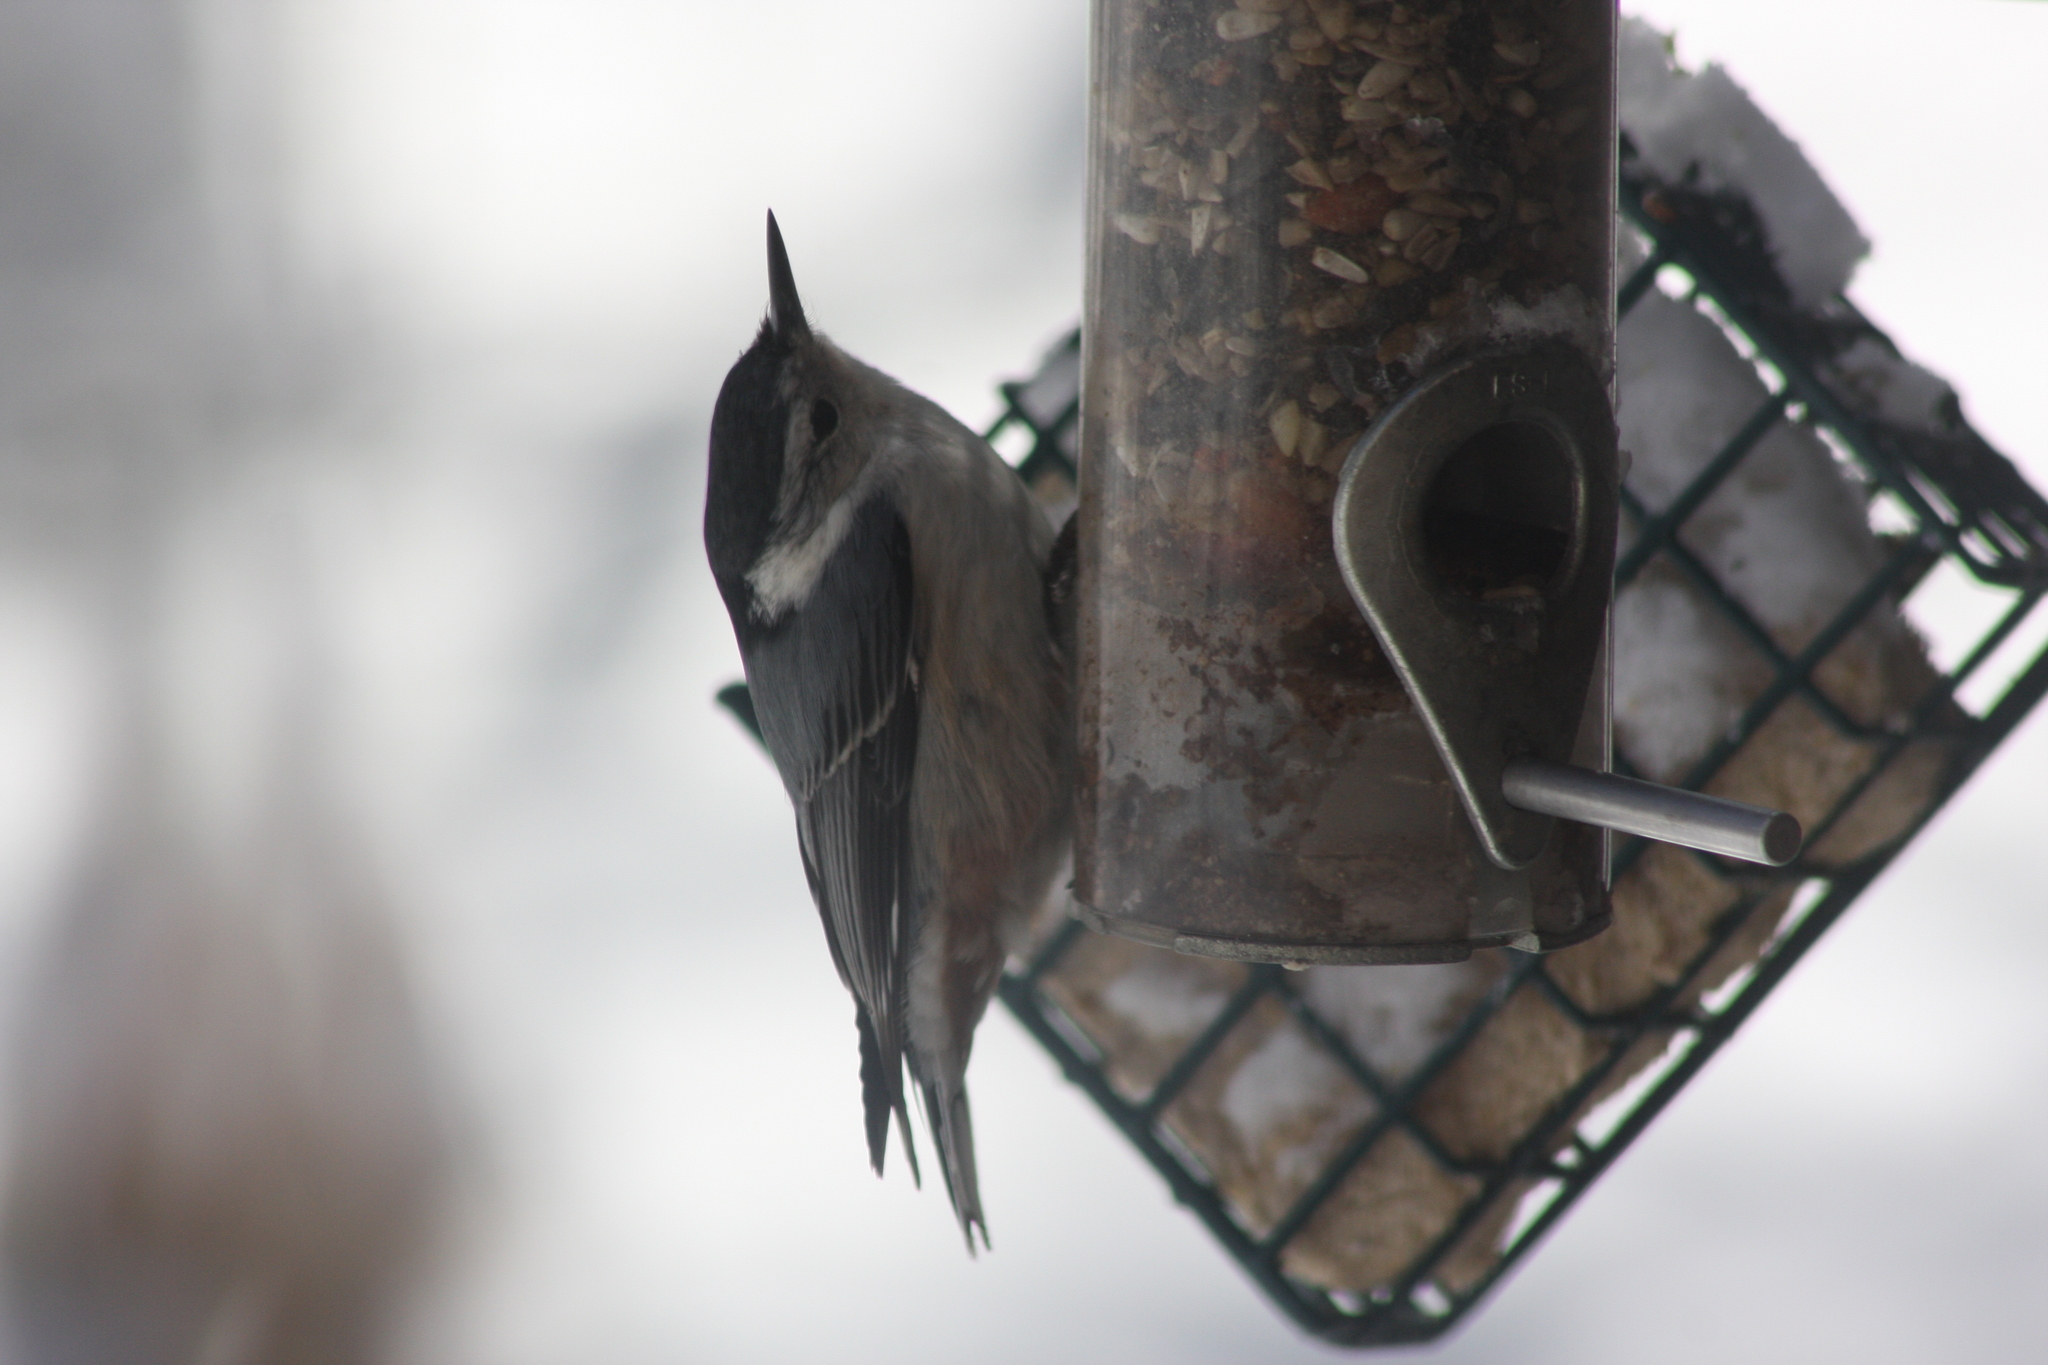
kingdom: Animalia
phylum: Chordata
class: Aves
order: Passeriformes
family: Sittidae
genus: Sitta
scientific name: Sitta carolinensis
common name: White-breasted nuthatch
